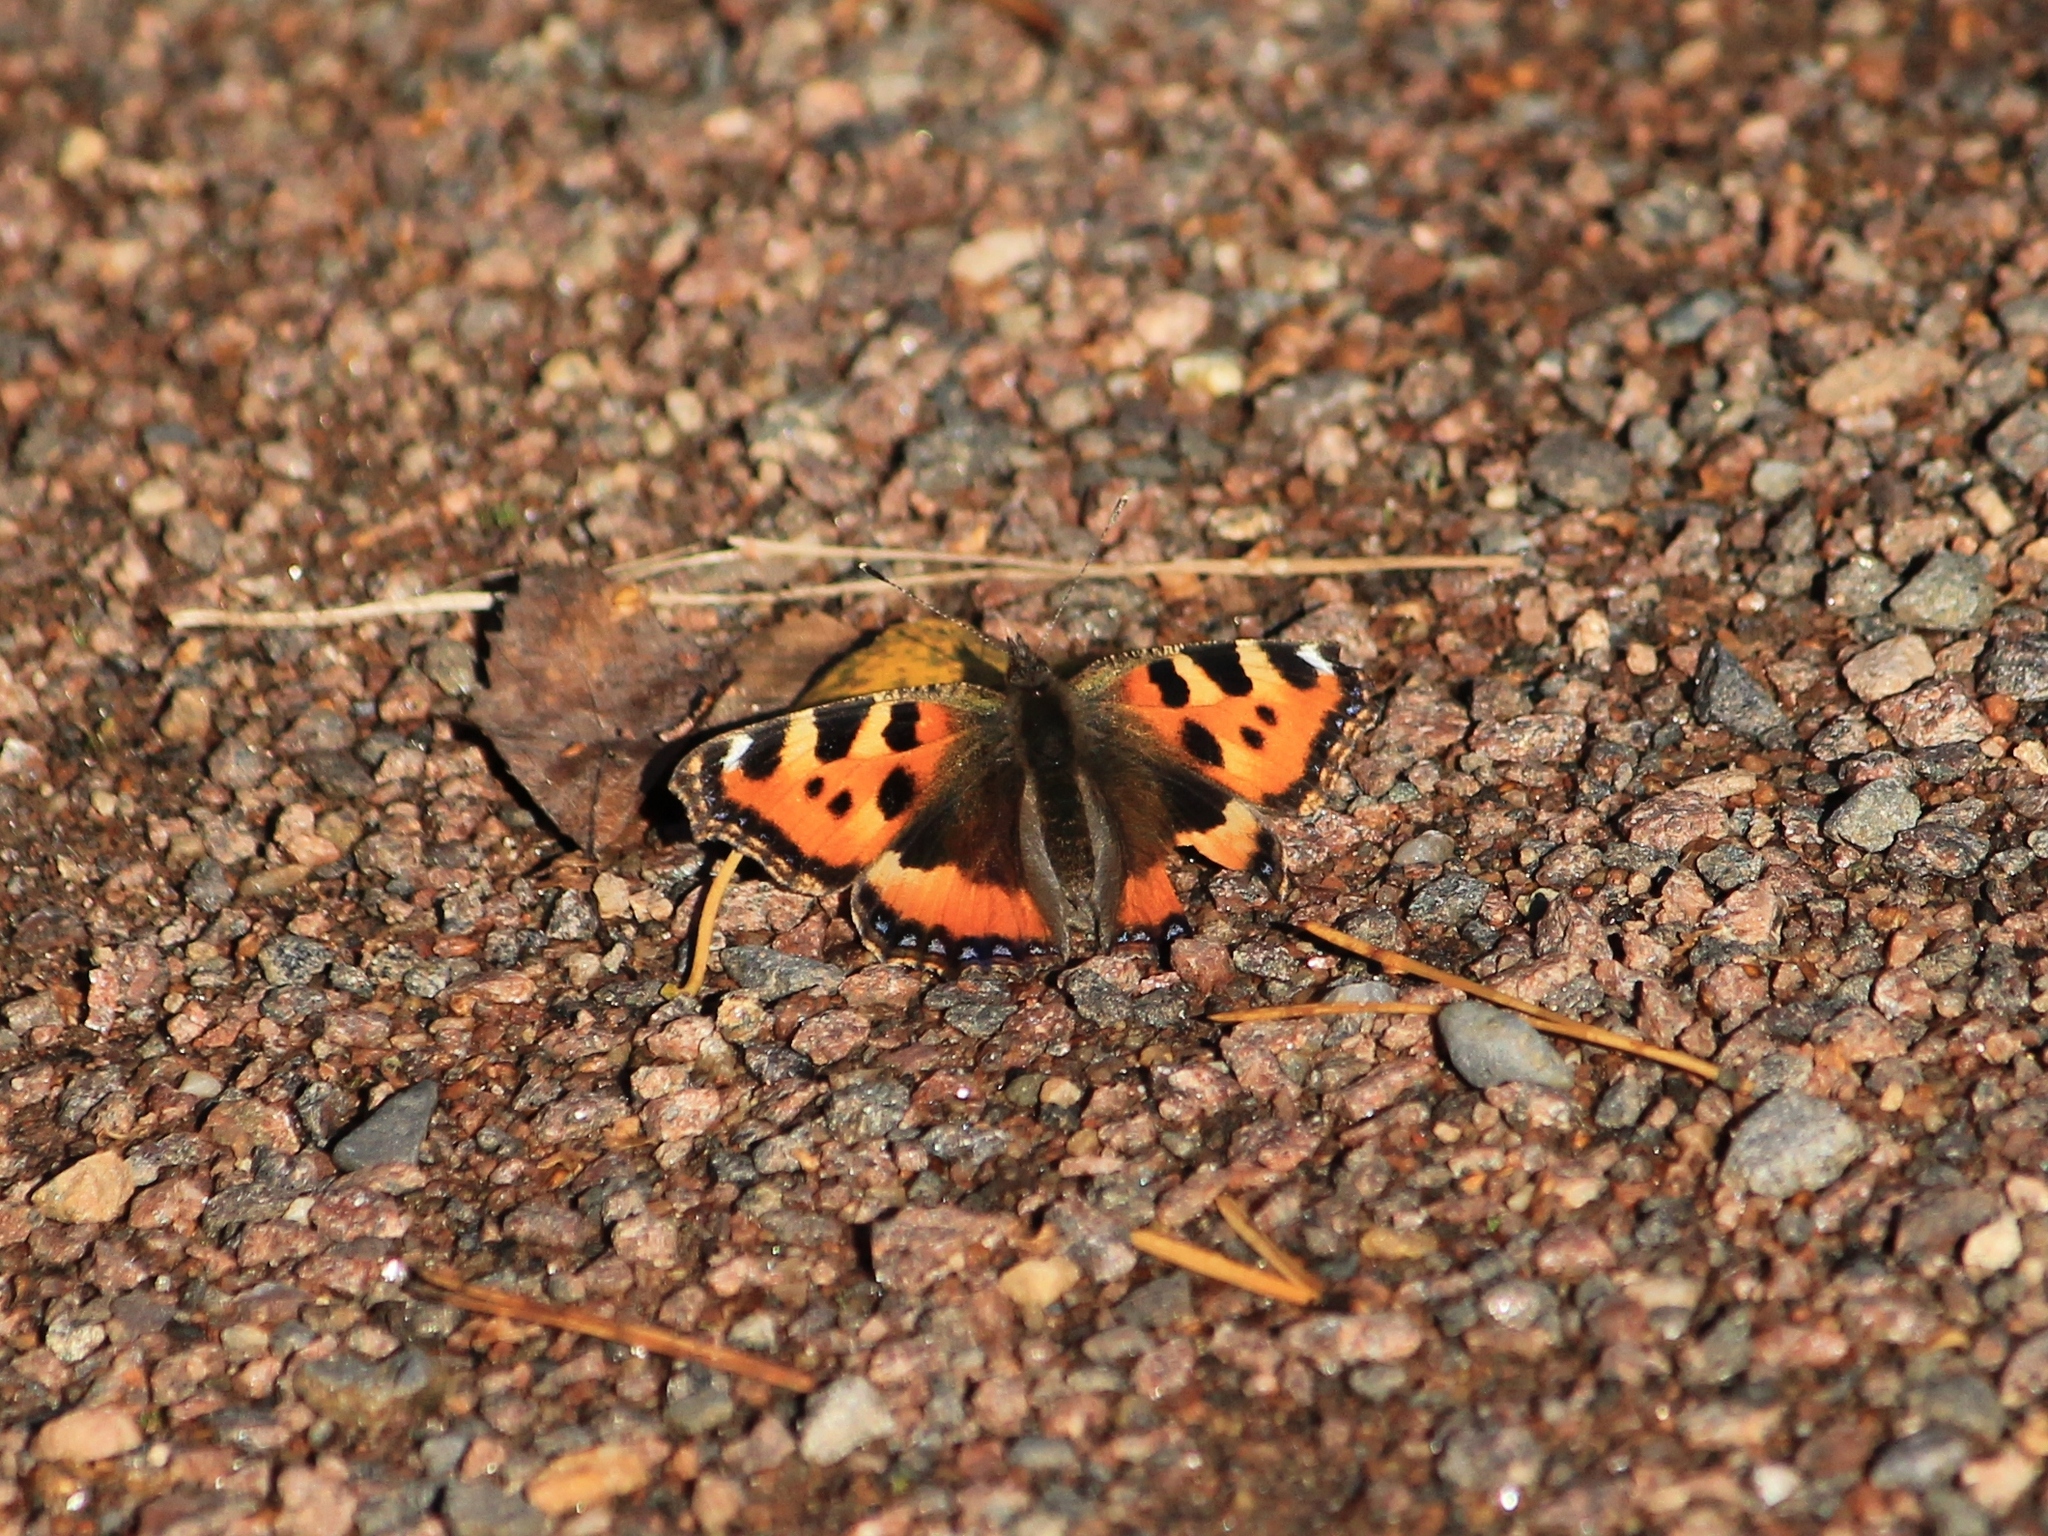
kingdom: Animalia
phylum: Arthropoda
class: Insecta
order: Lepidoptera
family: Nymphalidae
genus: Aglais
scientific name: Aglais urticae
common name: Small tortoiseshell
